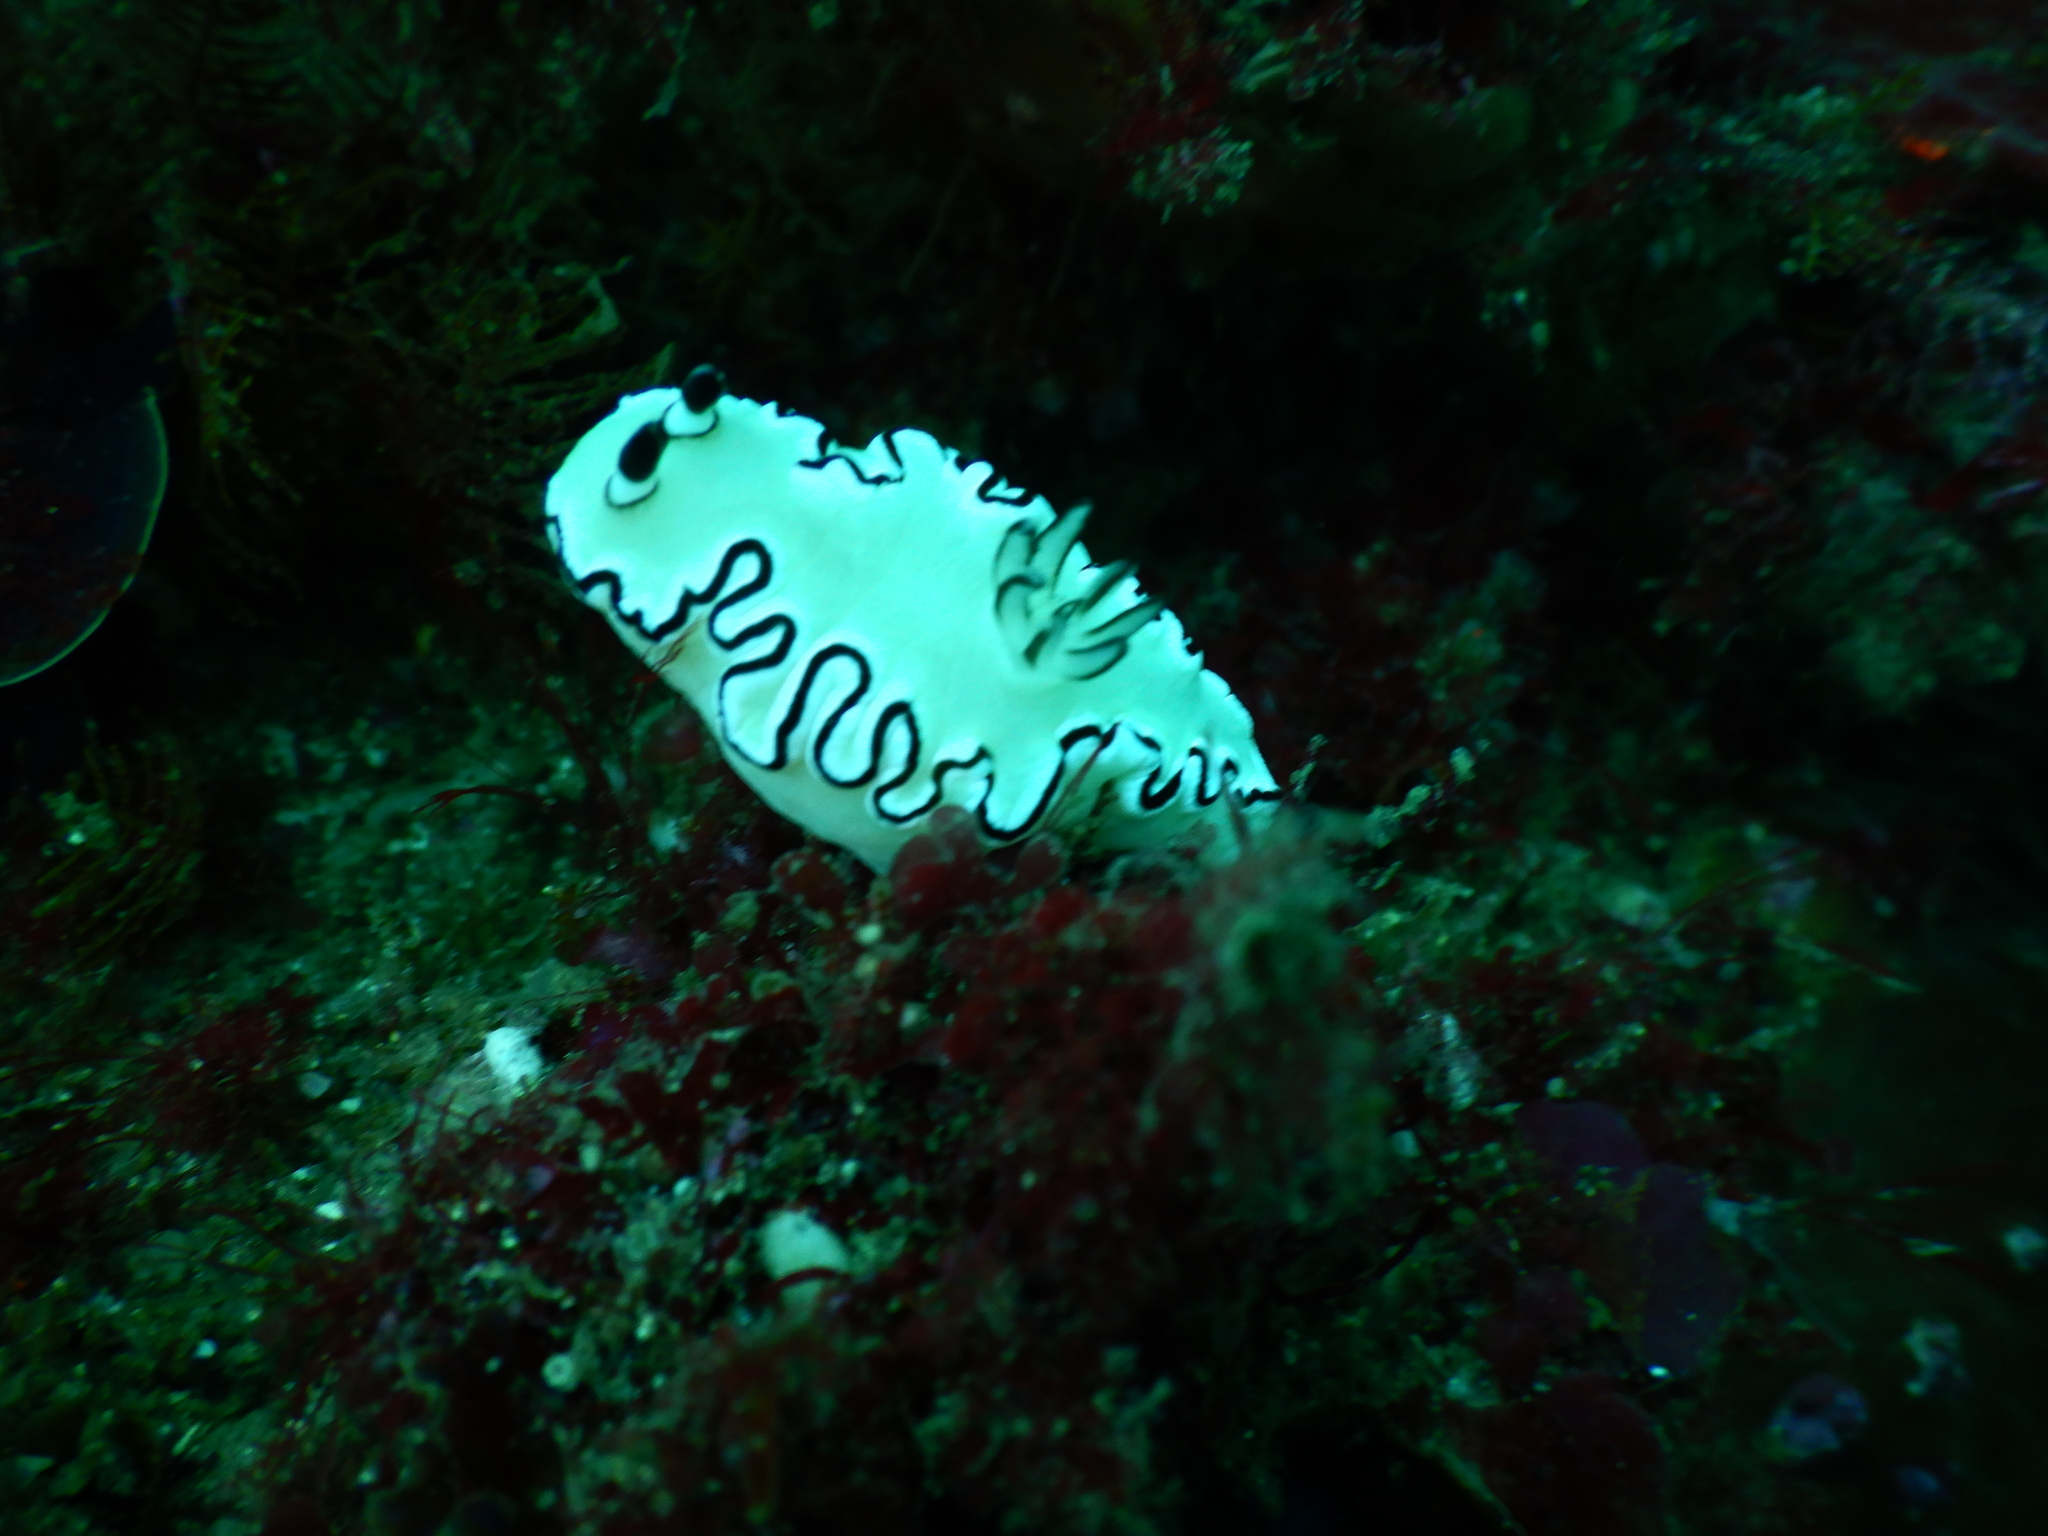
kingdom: Animalia
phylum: Mollusca
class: Gastropoda
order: Nudibranchia
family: Chromodorididae
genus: Doriprismatica
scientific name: Doriprismatica atromarginata
